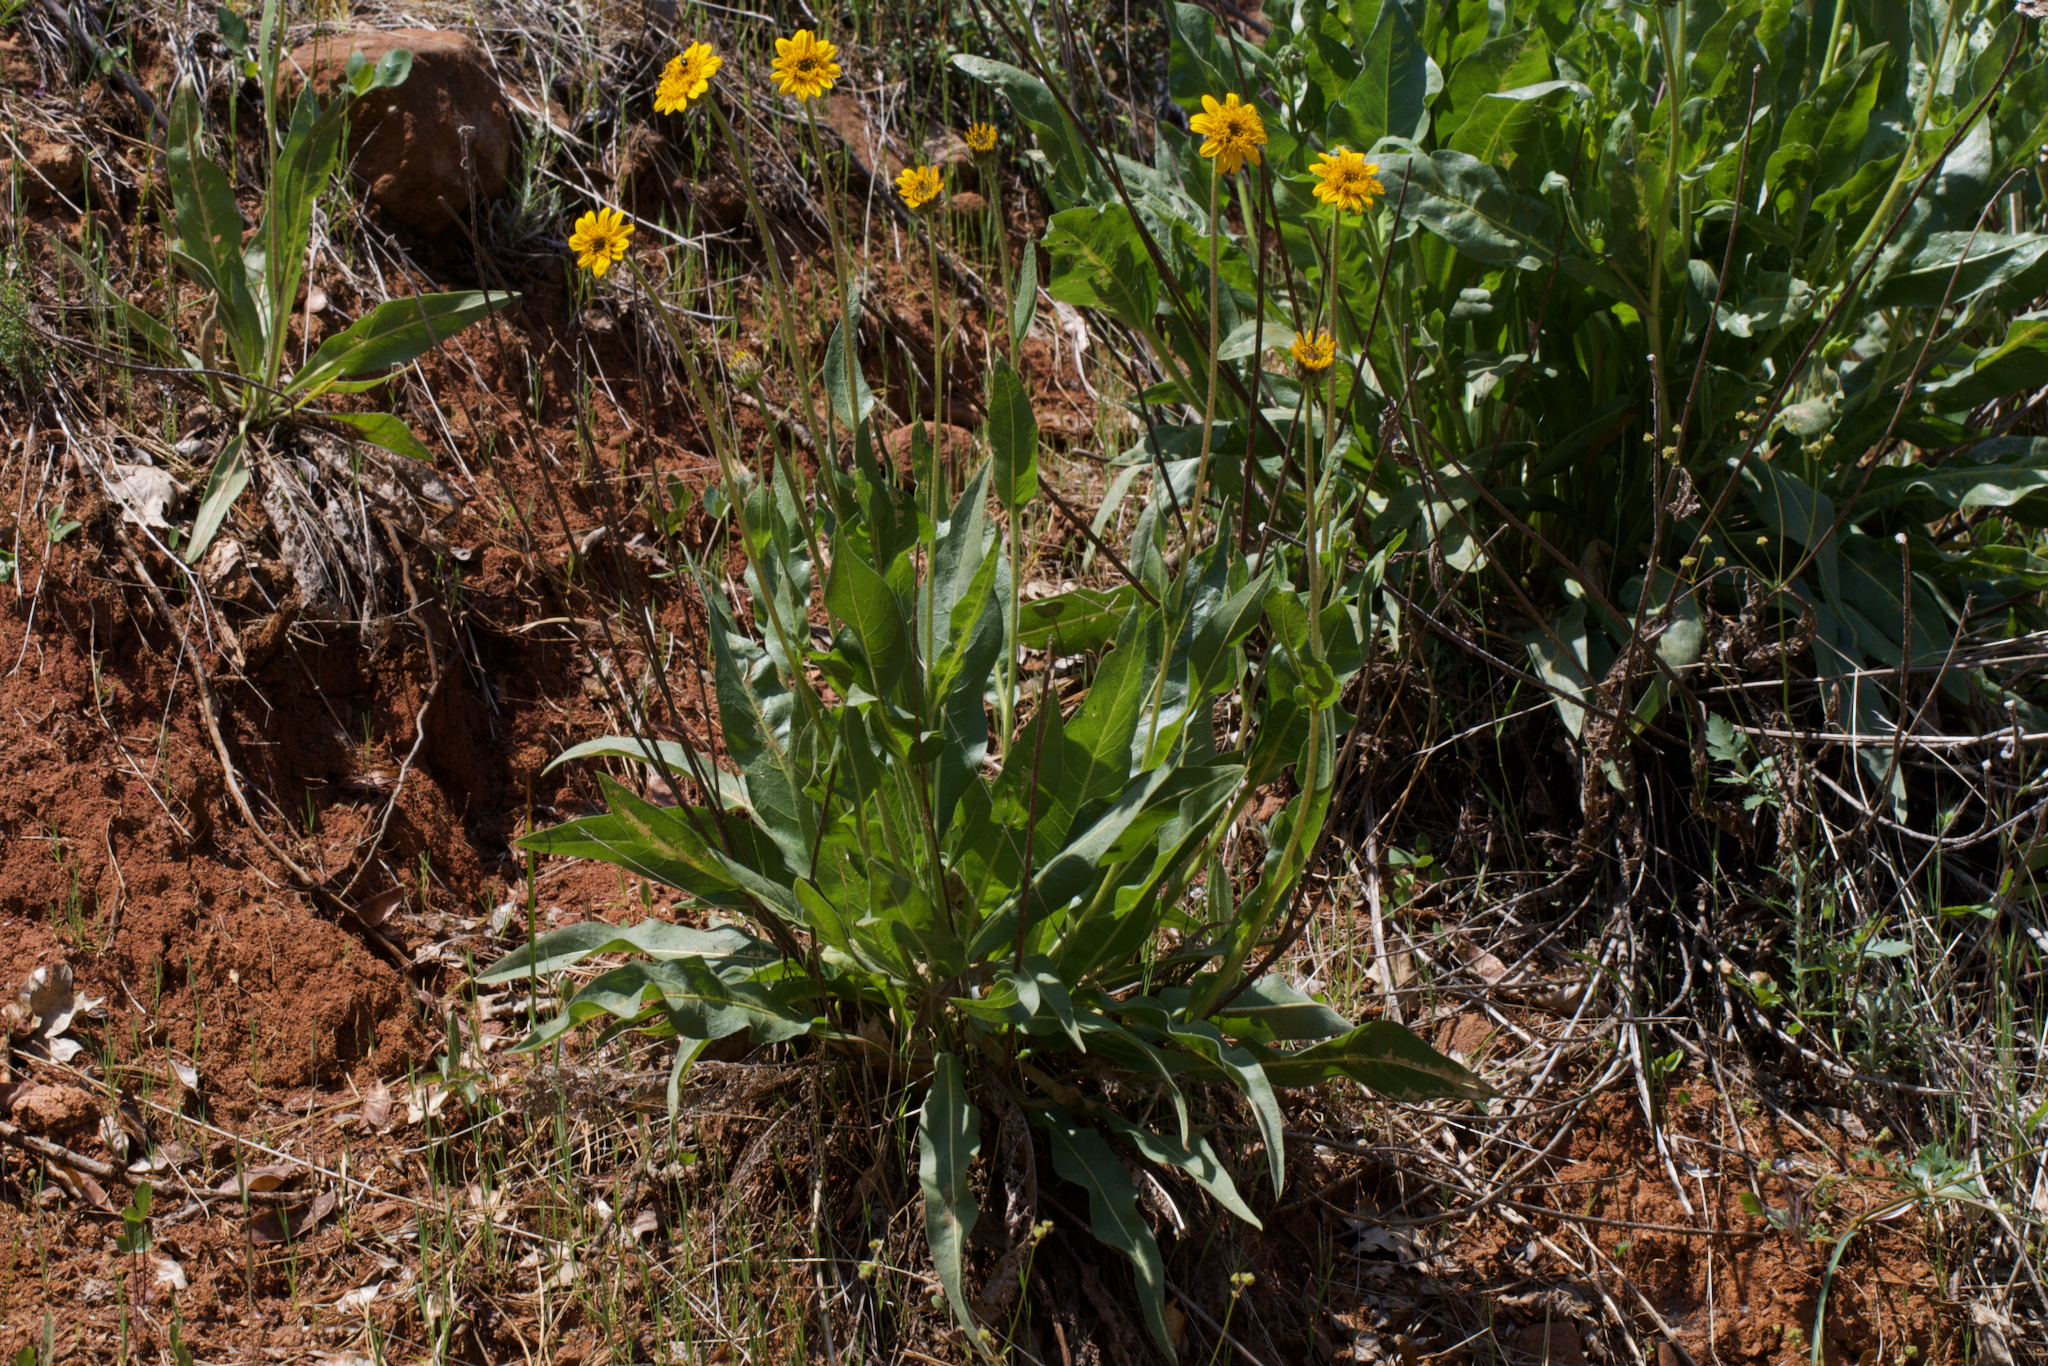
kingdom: Plantae
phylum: Tracheophyta
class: Magnoliopsida
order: Asterales
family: Asteraceae
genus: Wyethia
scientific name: Wyethia angustifolia
